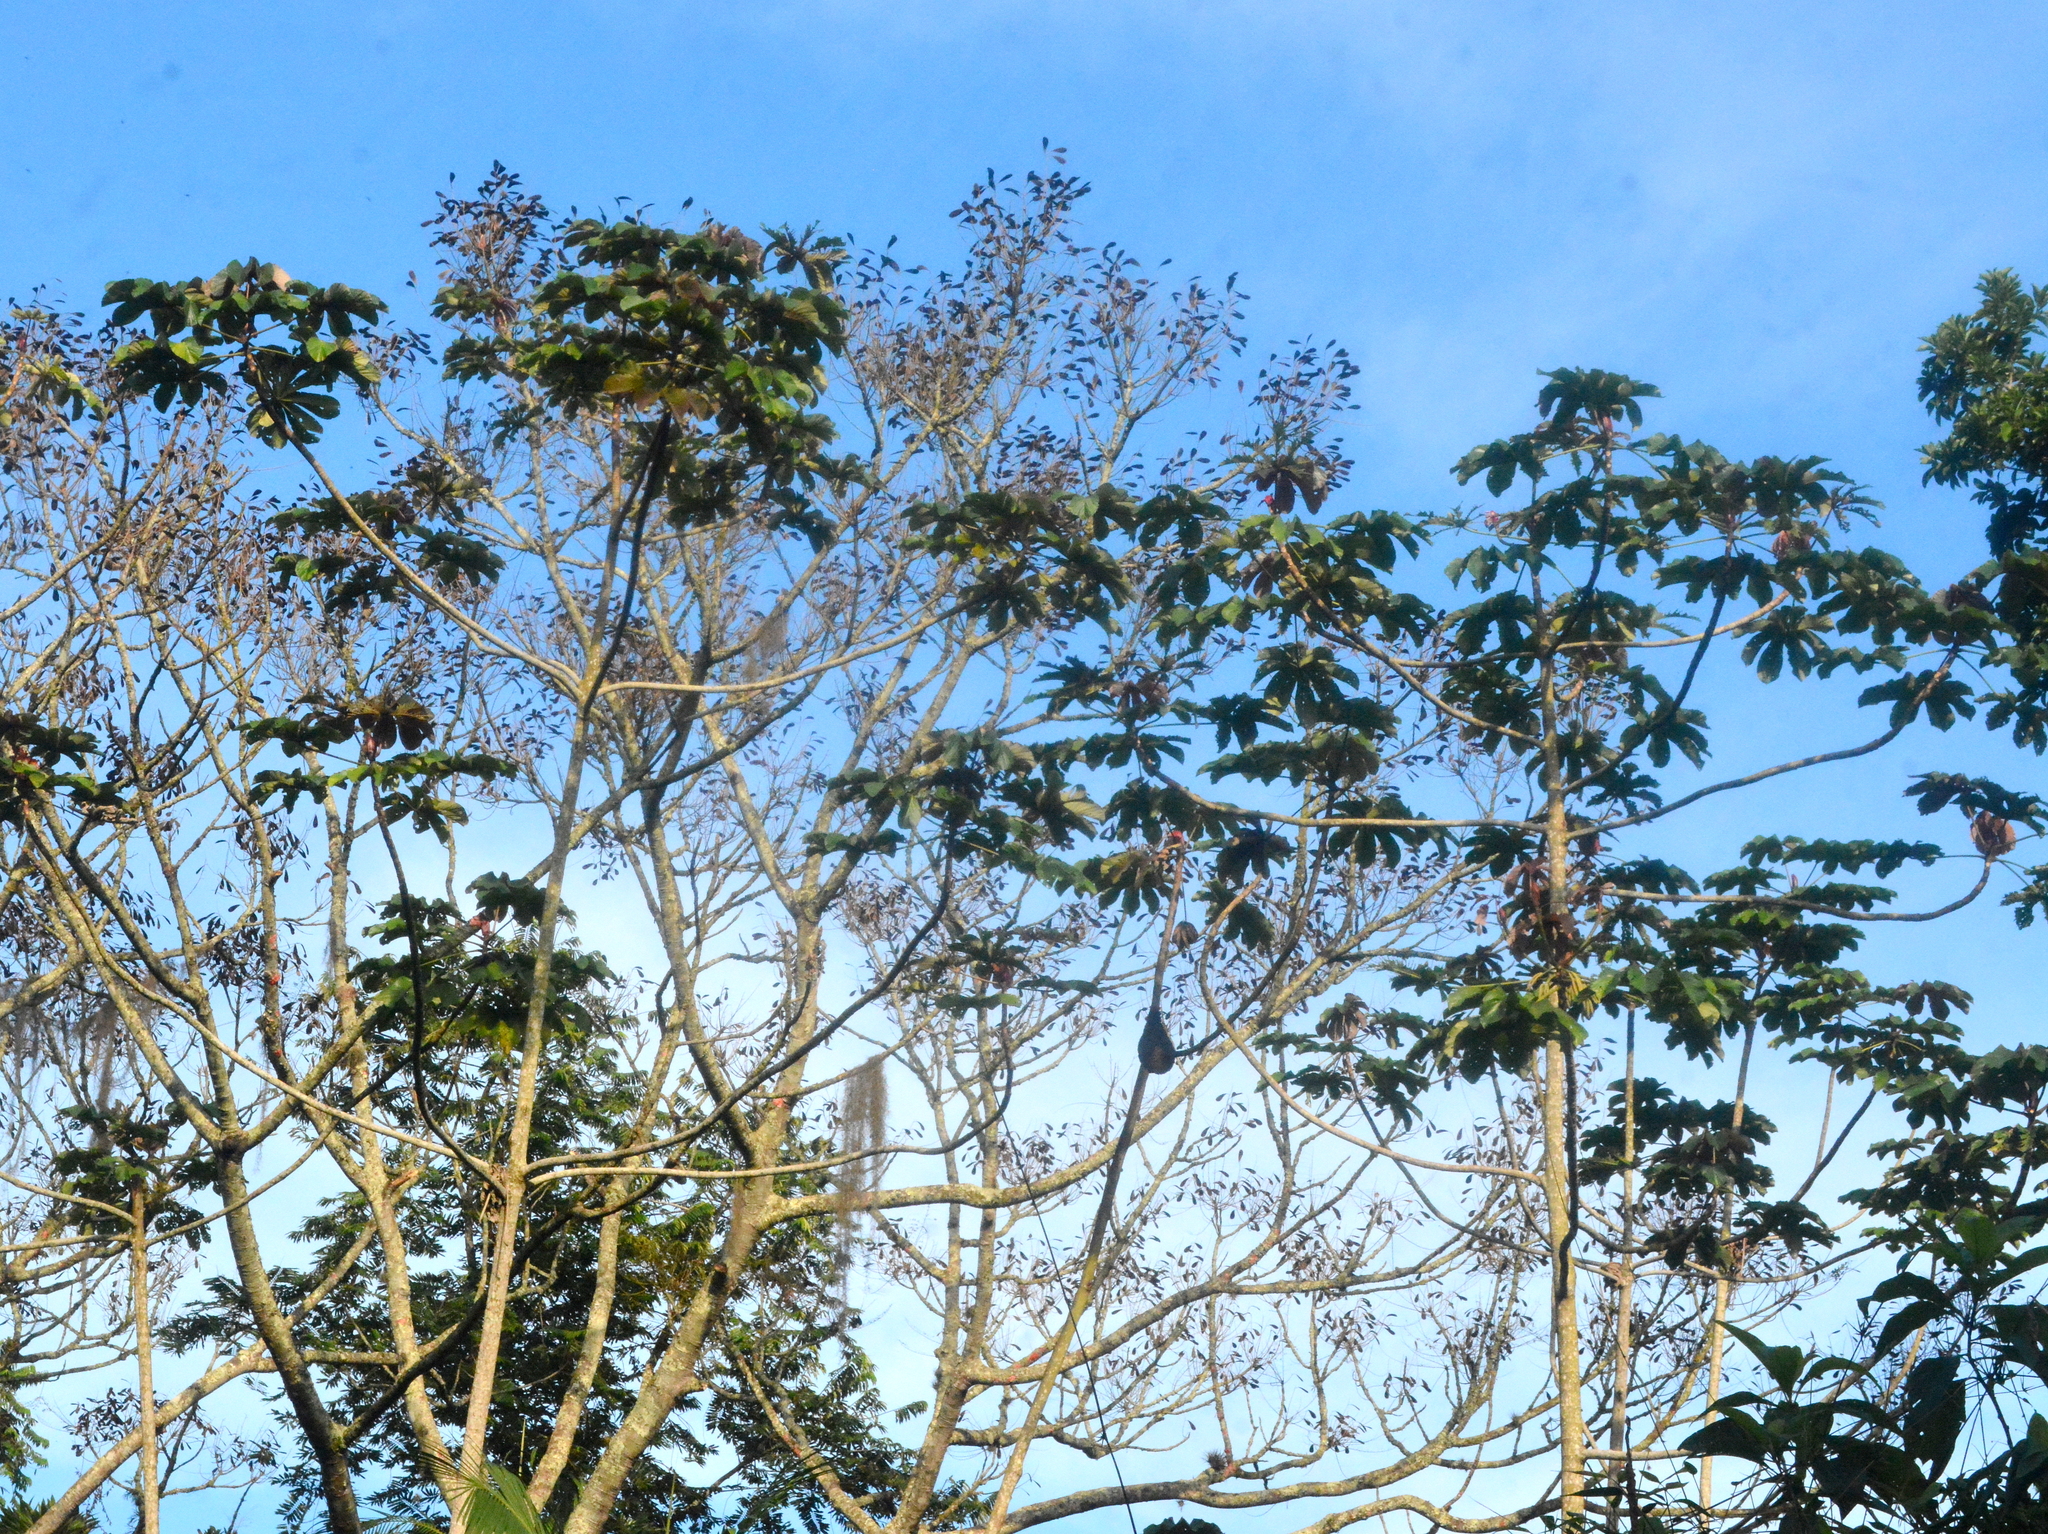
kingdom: Plantae
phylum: Tracheophyta
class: Magnoliopsida
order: Rosales
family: Urticaceae
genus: Cecropia
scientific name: Cecropia glaziovii
